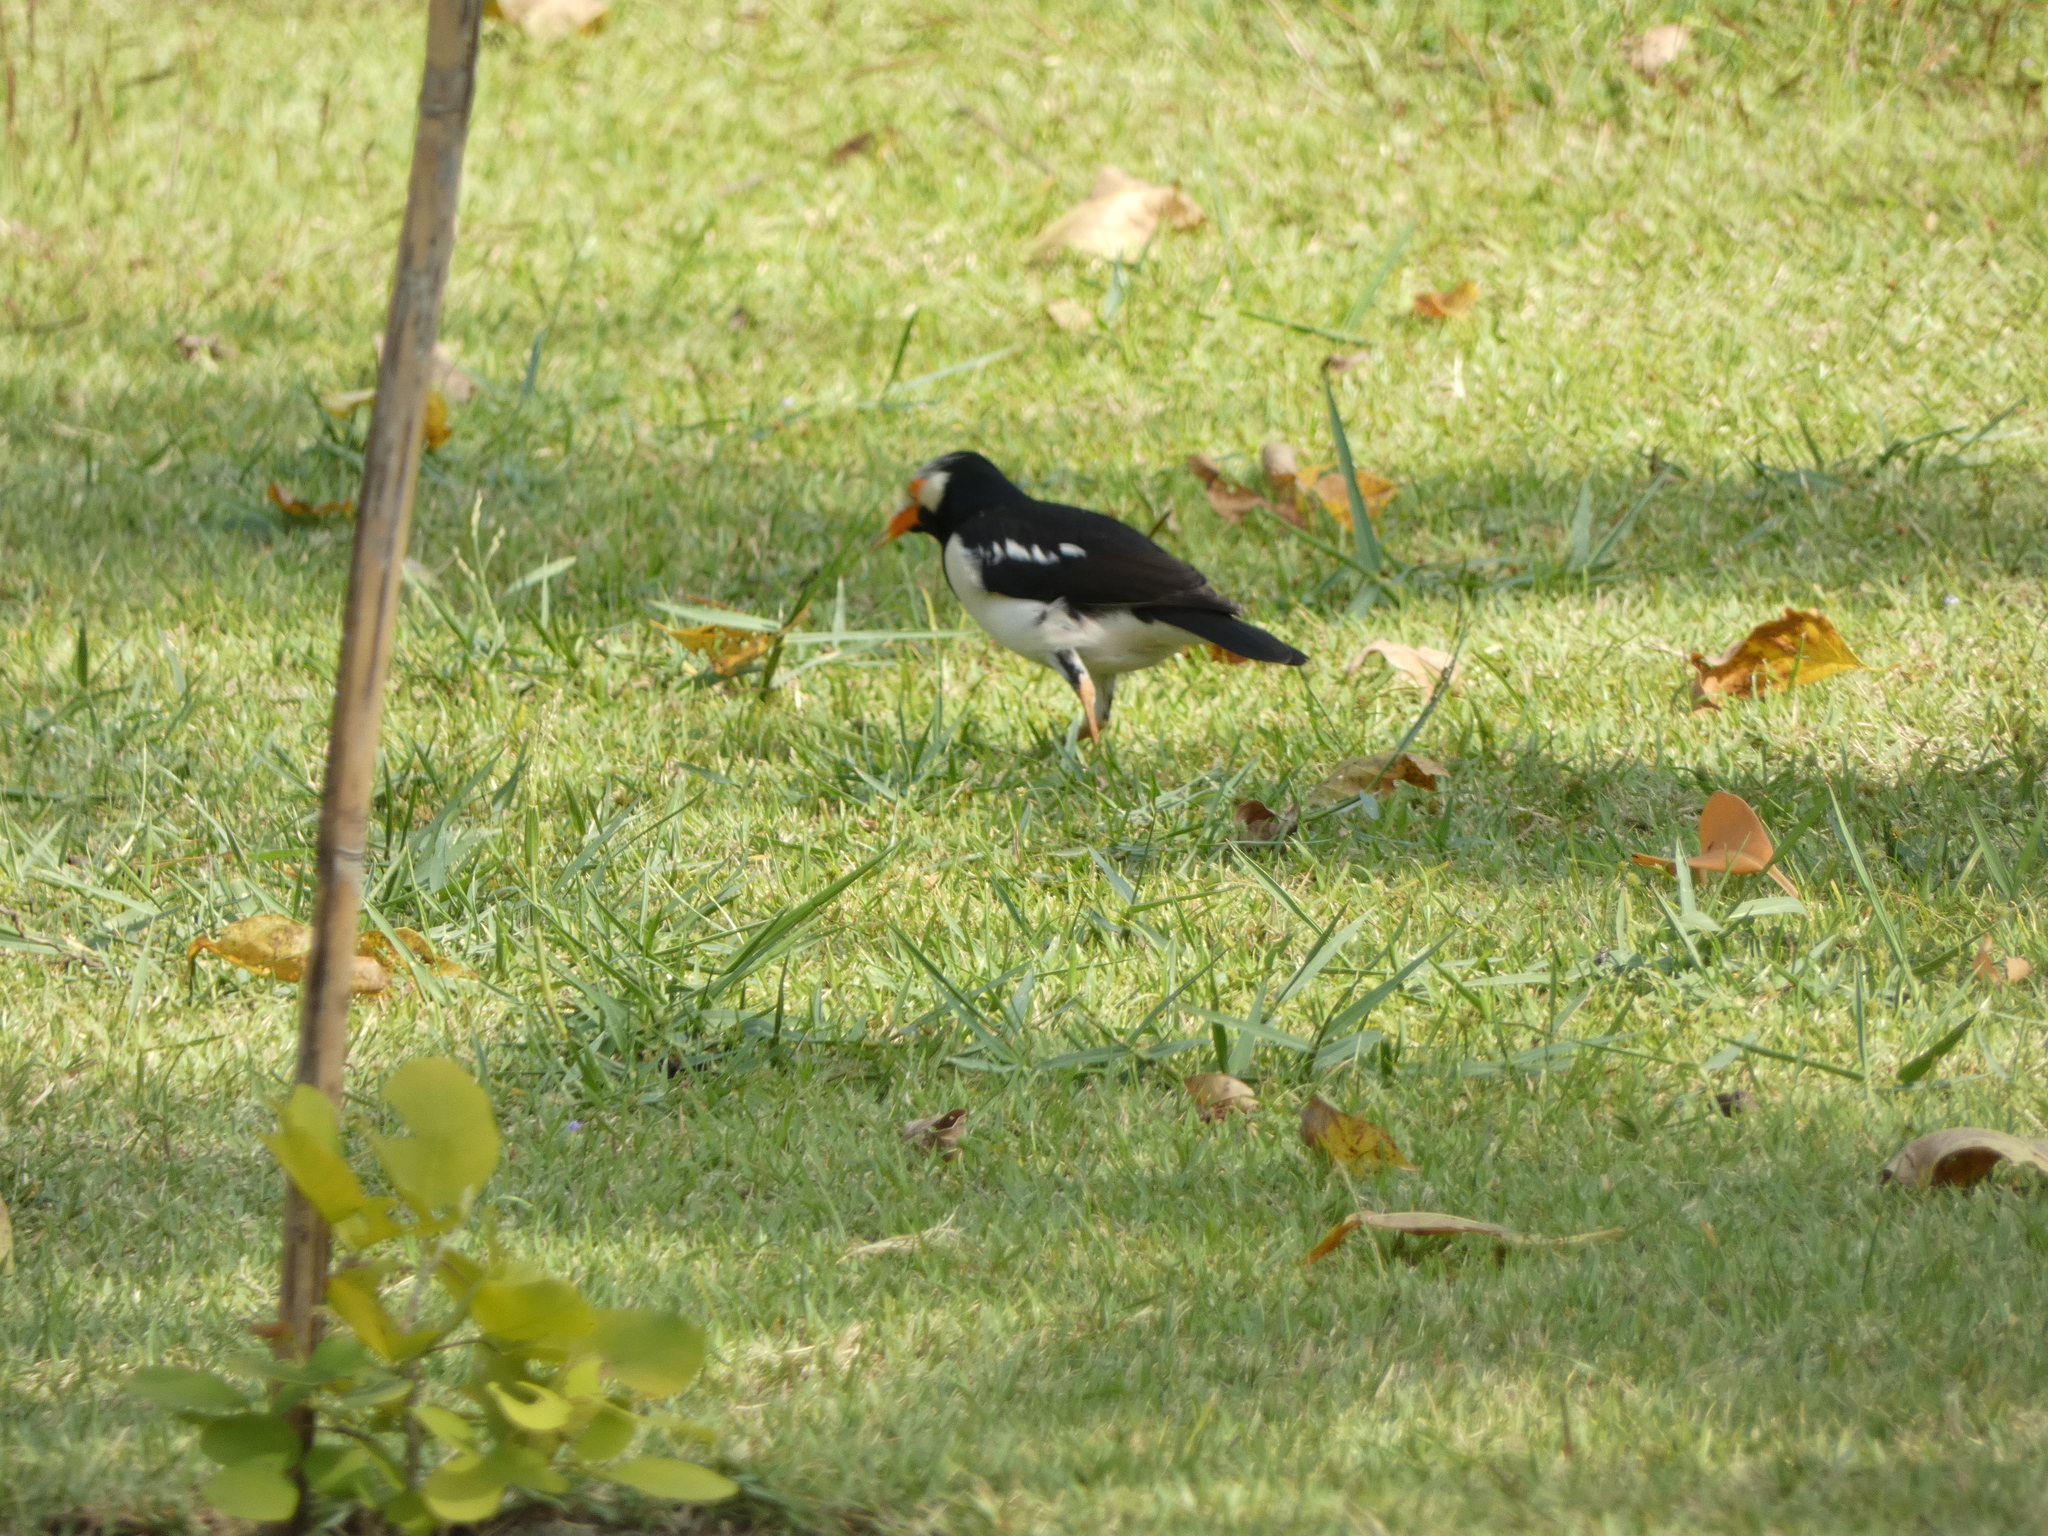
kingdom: Animalia
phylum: Chordata
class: Aves
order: Passeriformes
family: Sturnidae
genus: Gracupica
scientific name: Gracupica contra
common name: Pied myna
